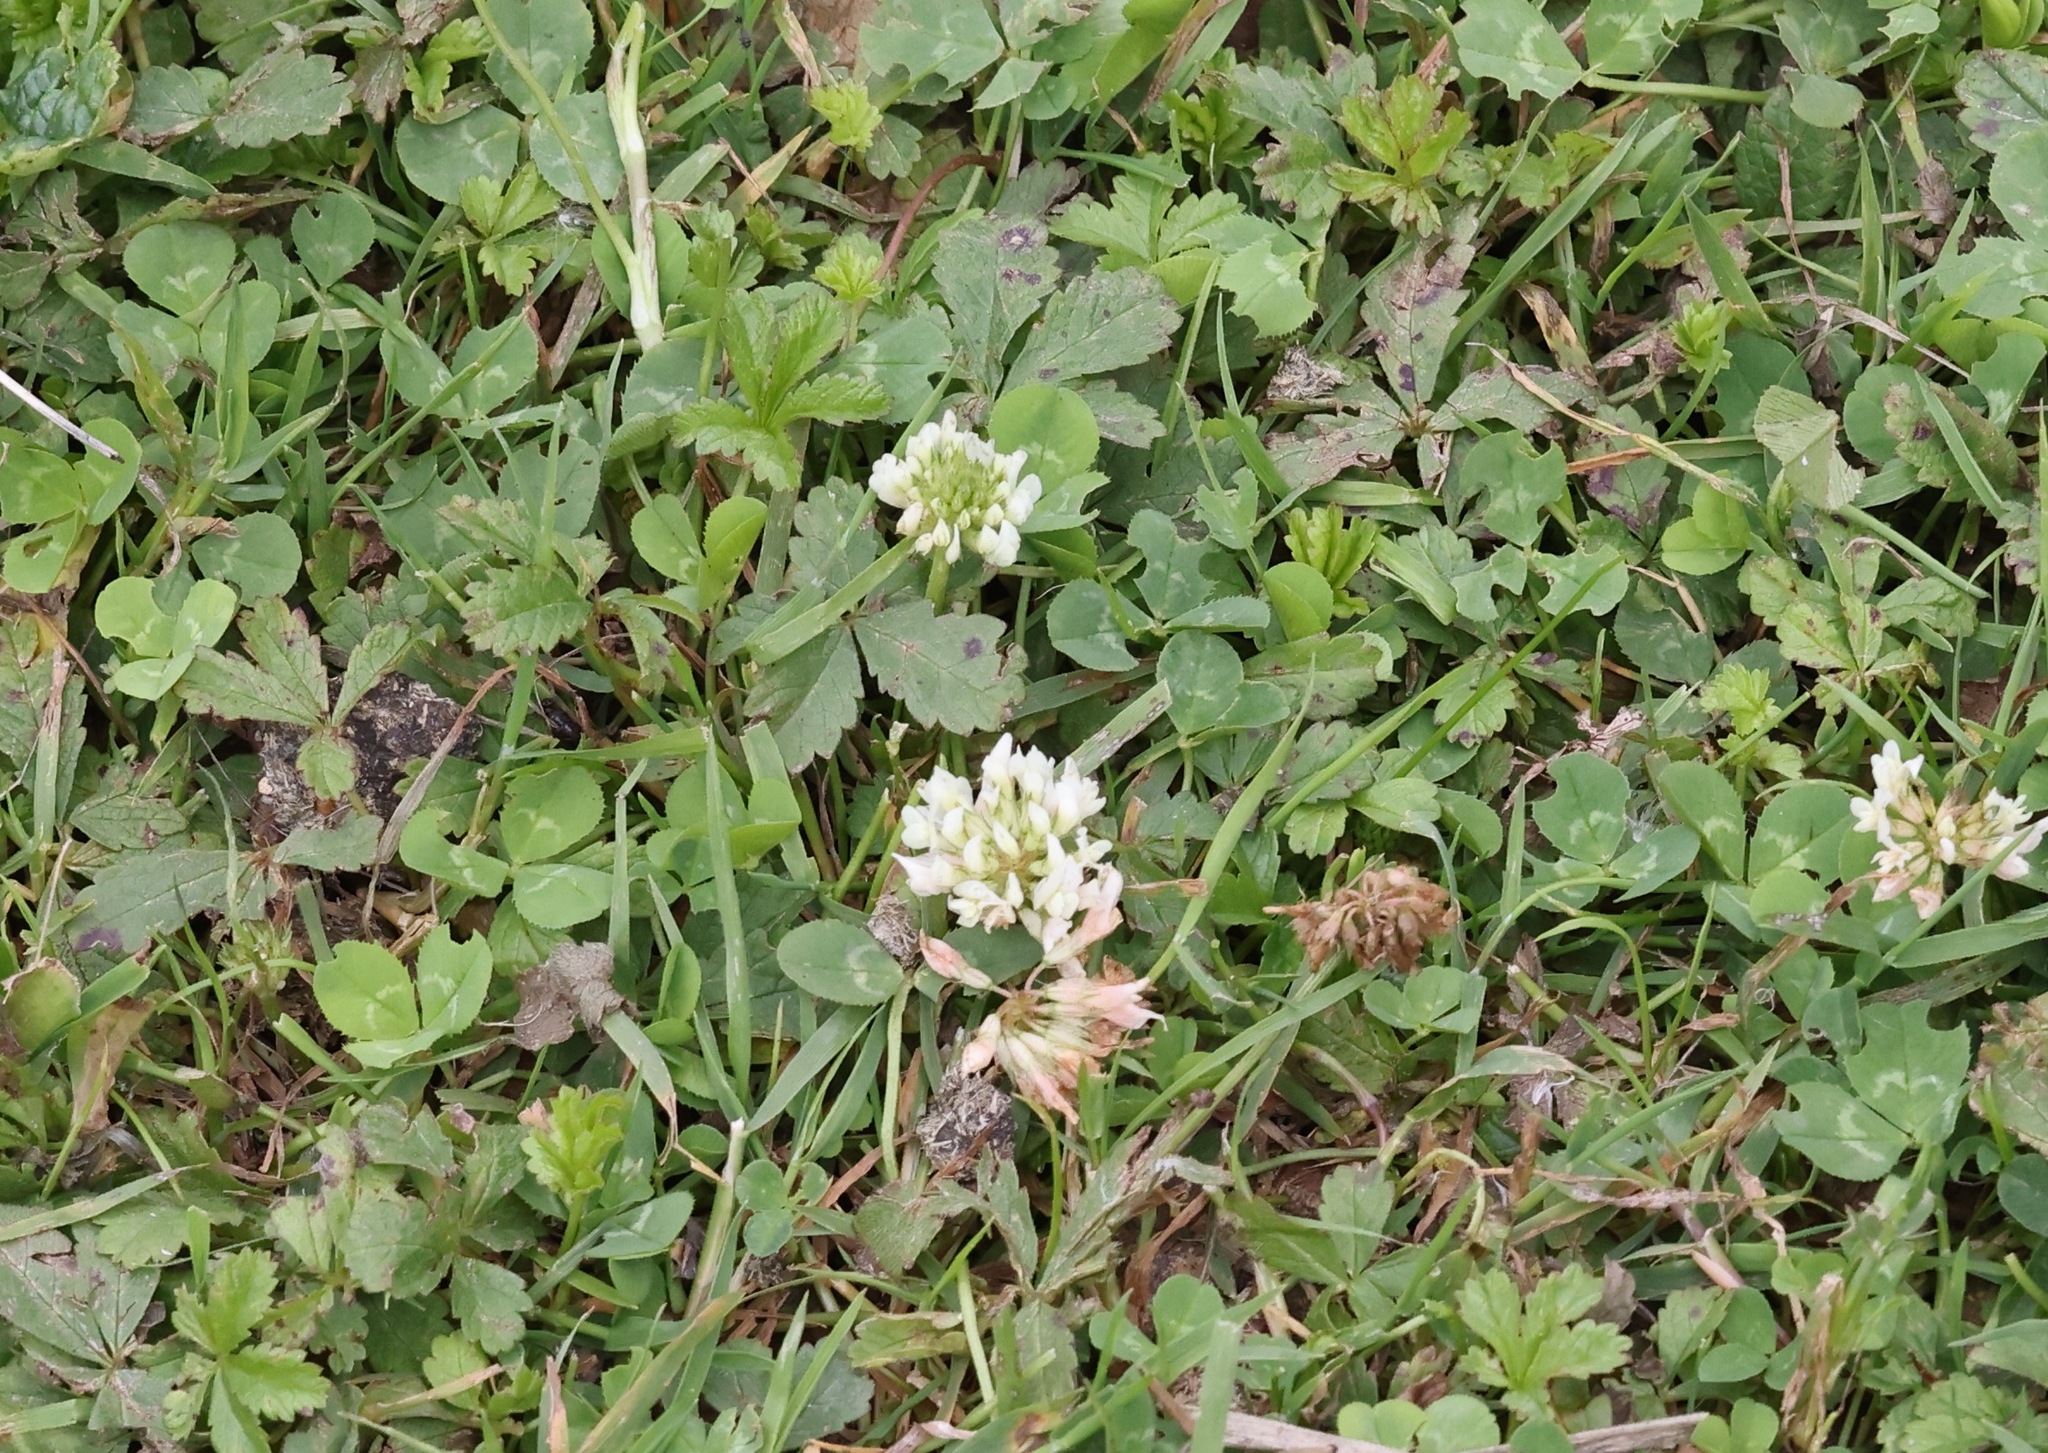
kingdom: Plantae
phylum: Tracheophyta
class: Magnoliopsida
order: Fabales
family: Fabaceae
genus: Trifolium
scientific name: Trifolium repens
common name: White clover
